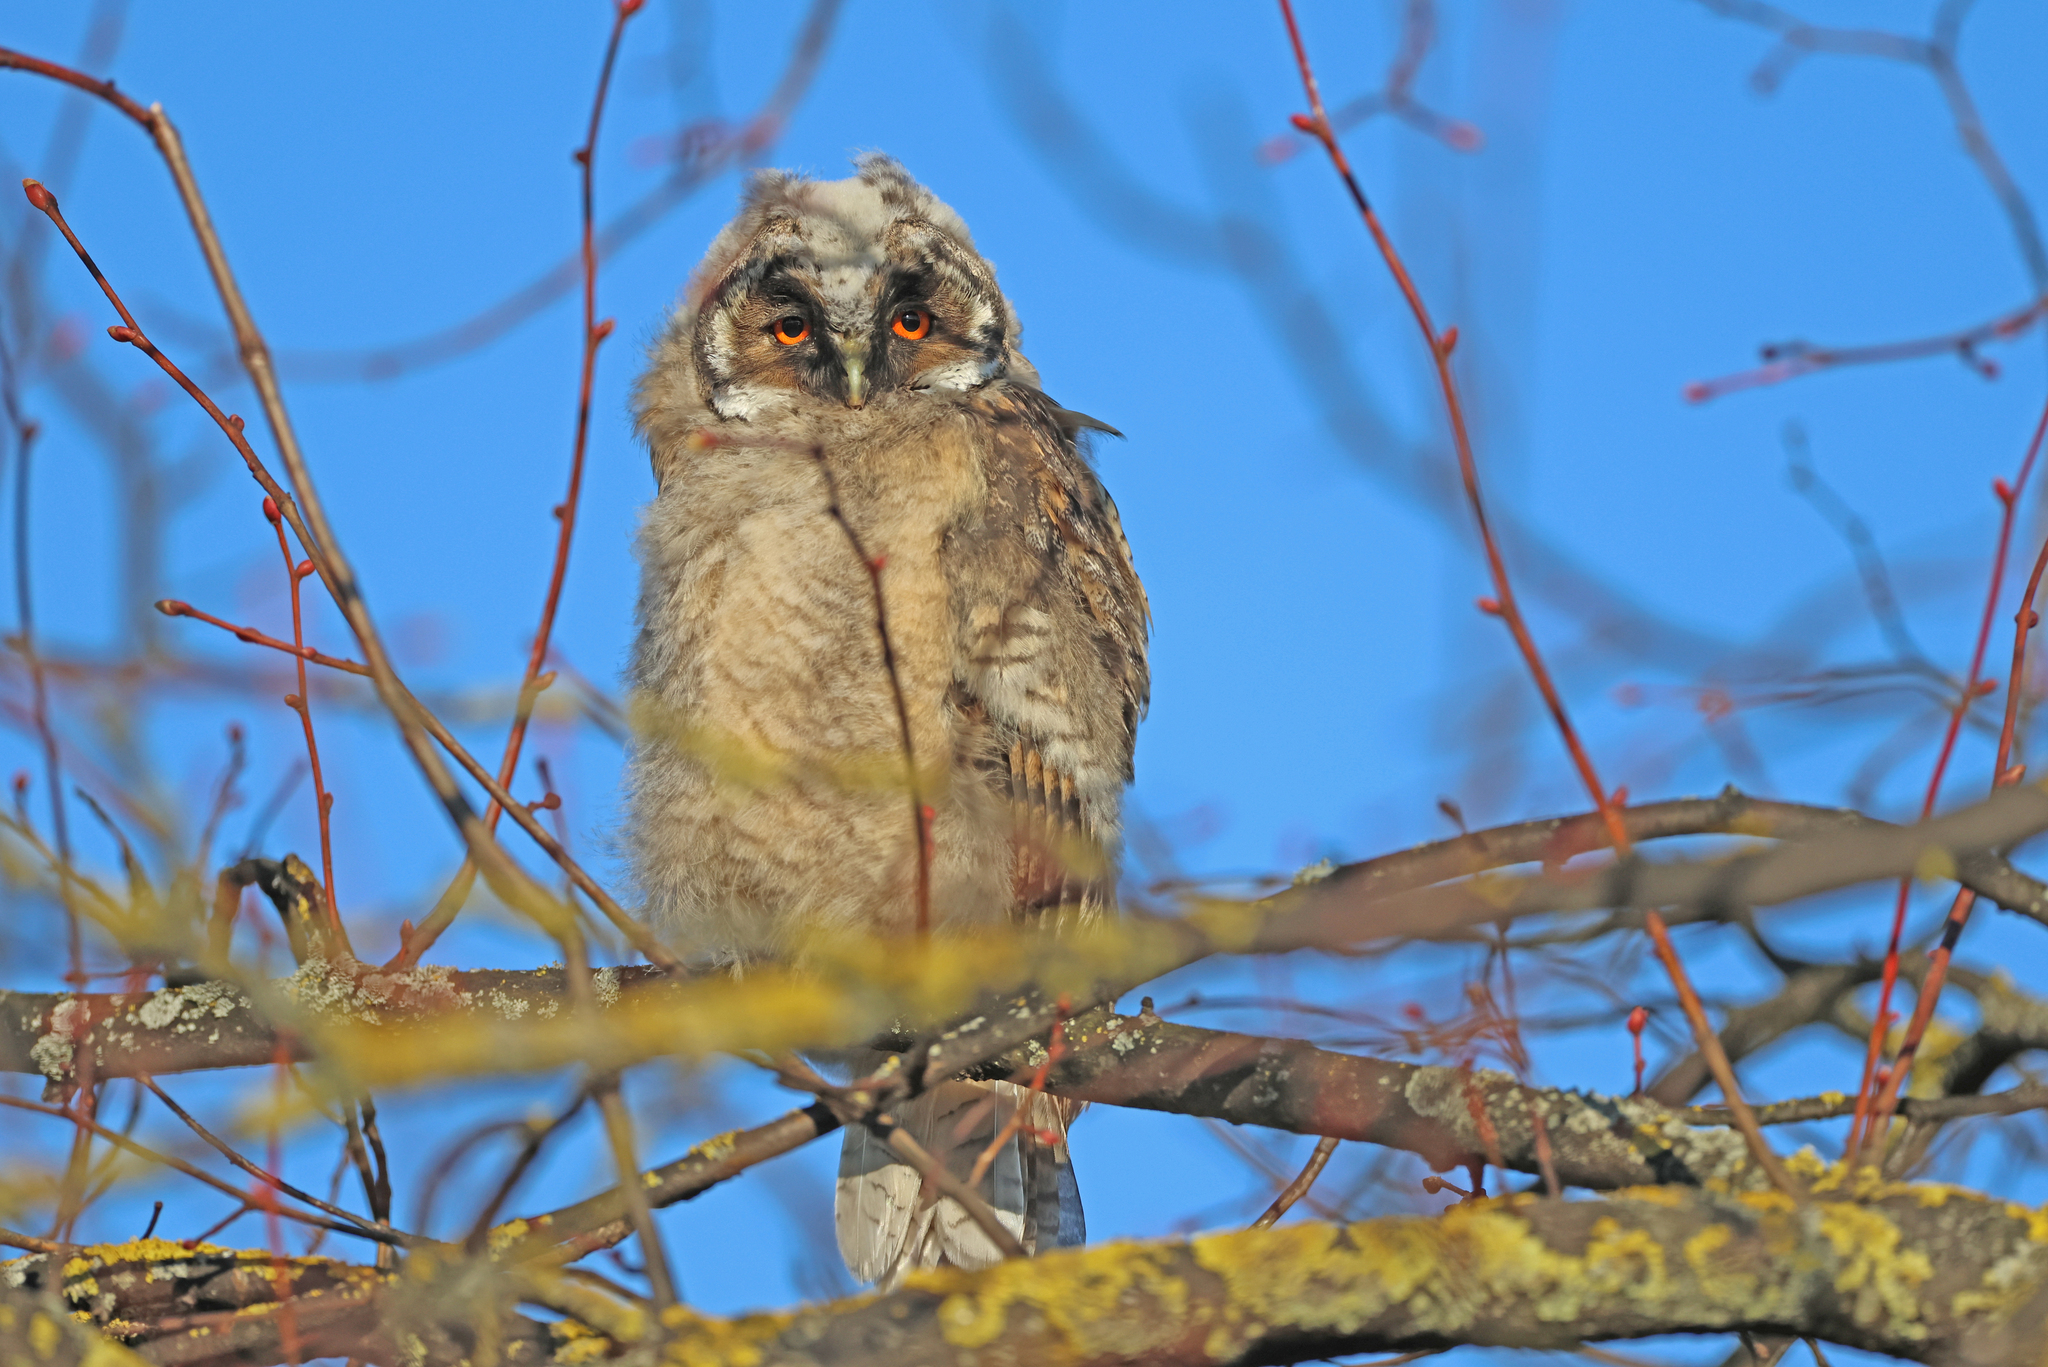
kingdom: Animalia
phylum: Chordata
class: Aves
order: Strigiformes
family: Strigidae
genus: Asio
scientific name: Asio otus
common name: Long-eared owl
